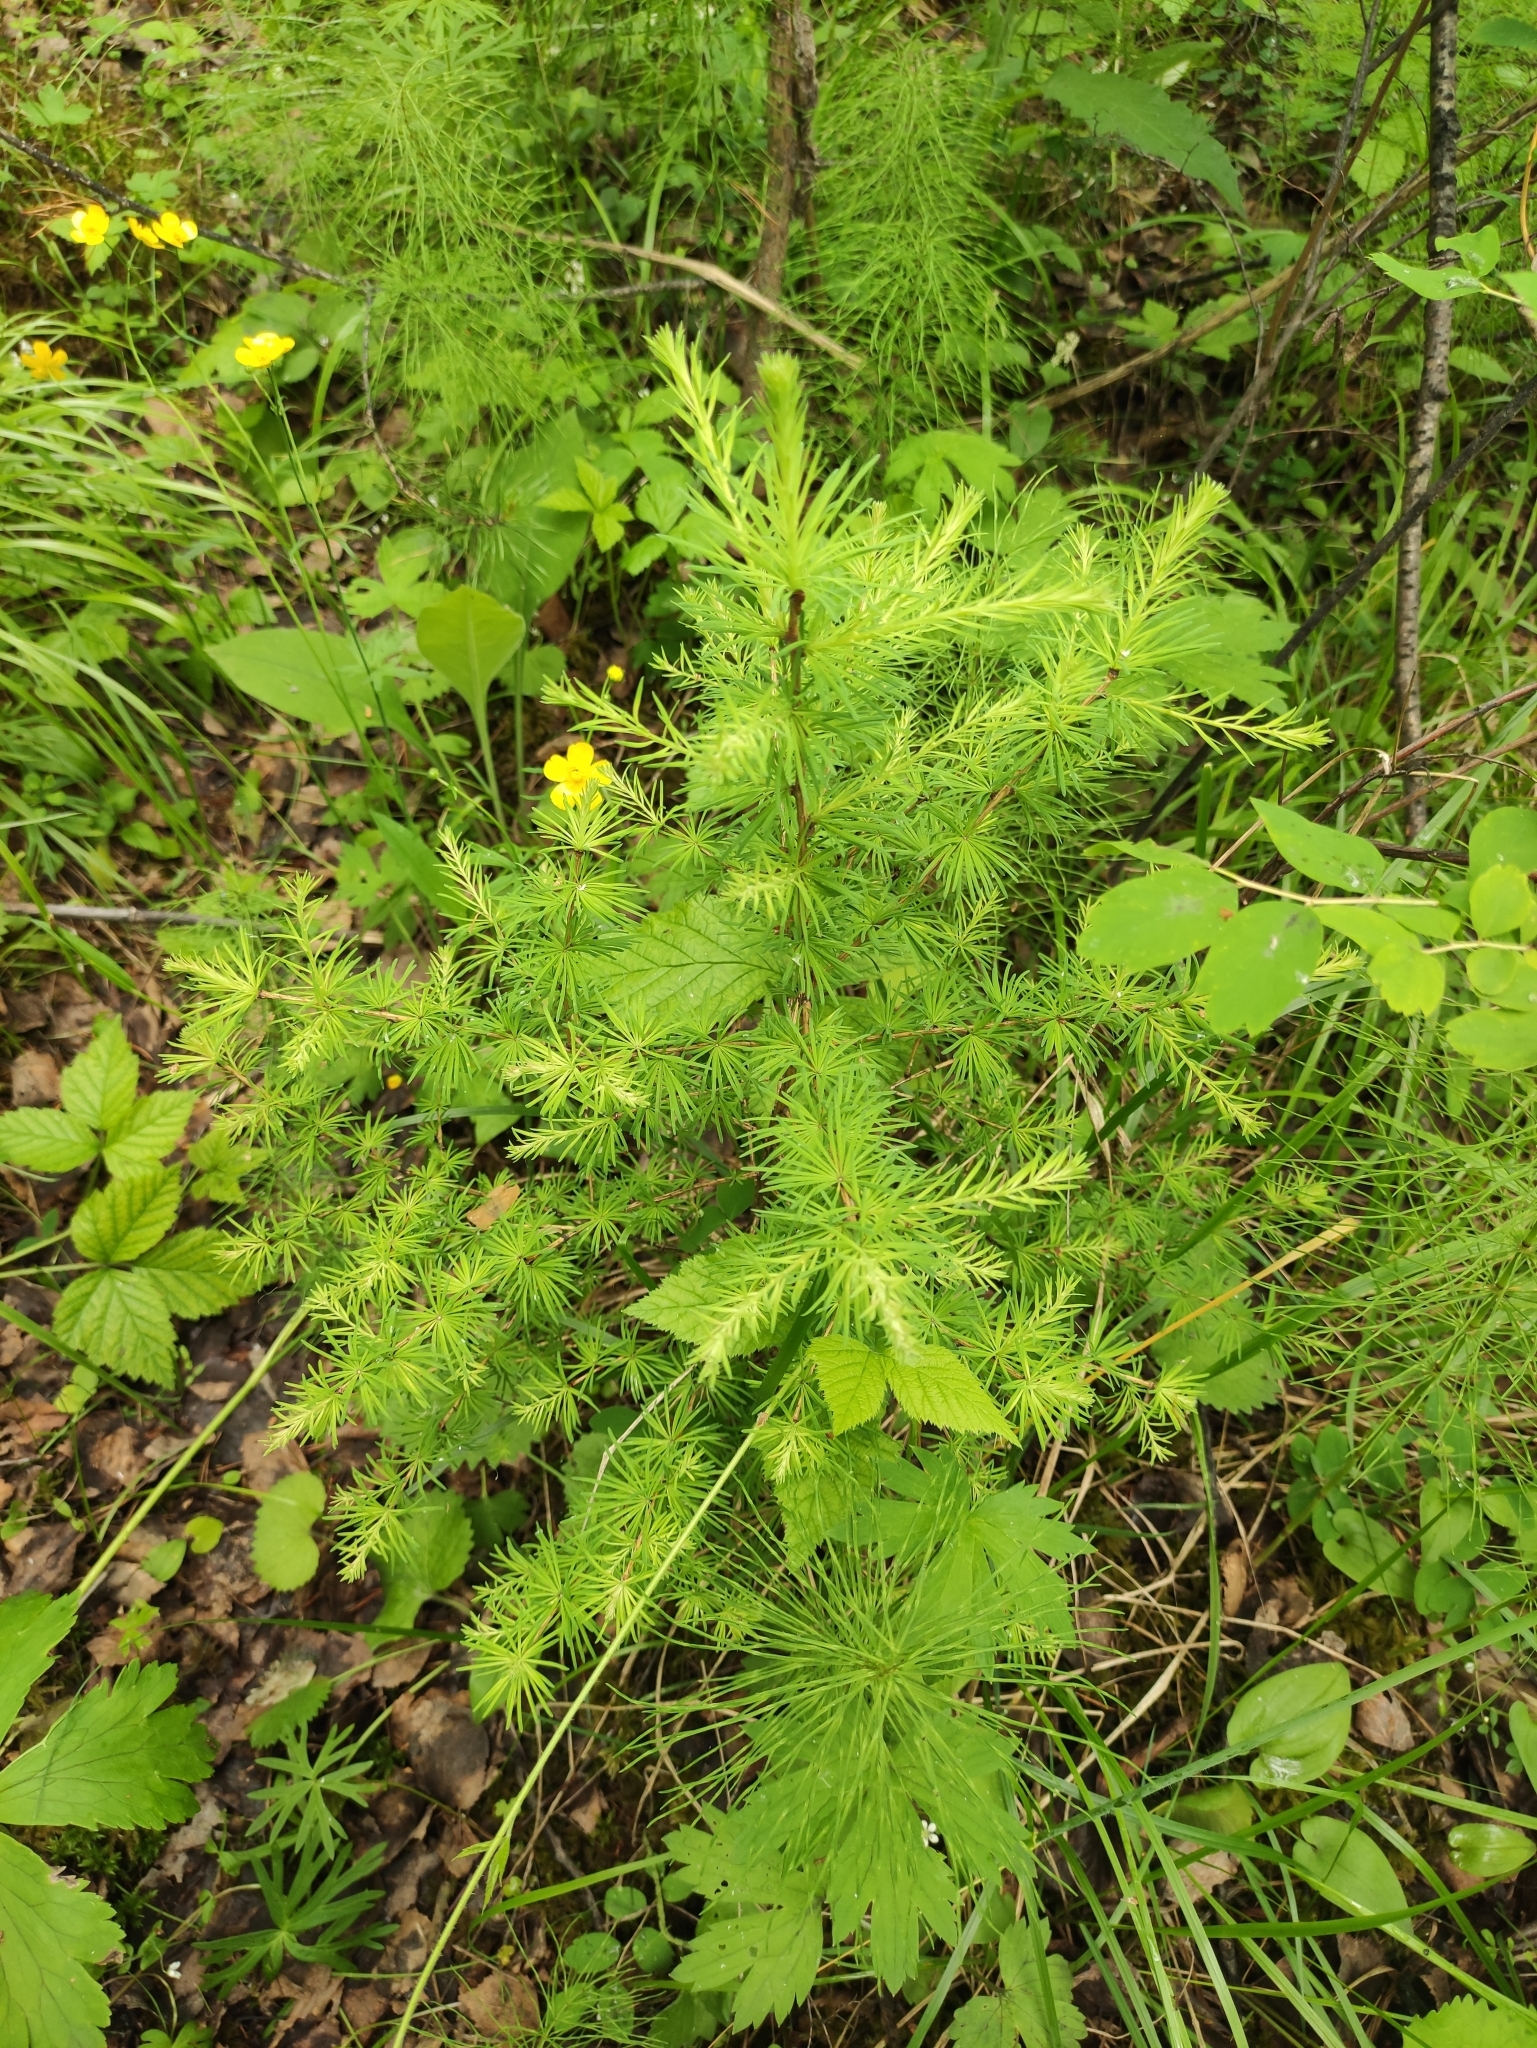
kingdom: Plantae
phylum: Tracheophyta
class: Pinopsida
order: Pinales
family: Pinaceae
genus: Larix
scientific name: Larix sibirica
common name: Siberian larch
